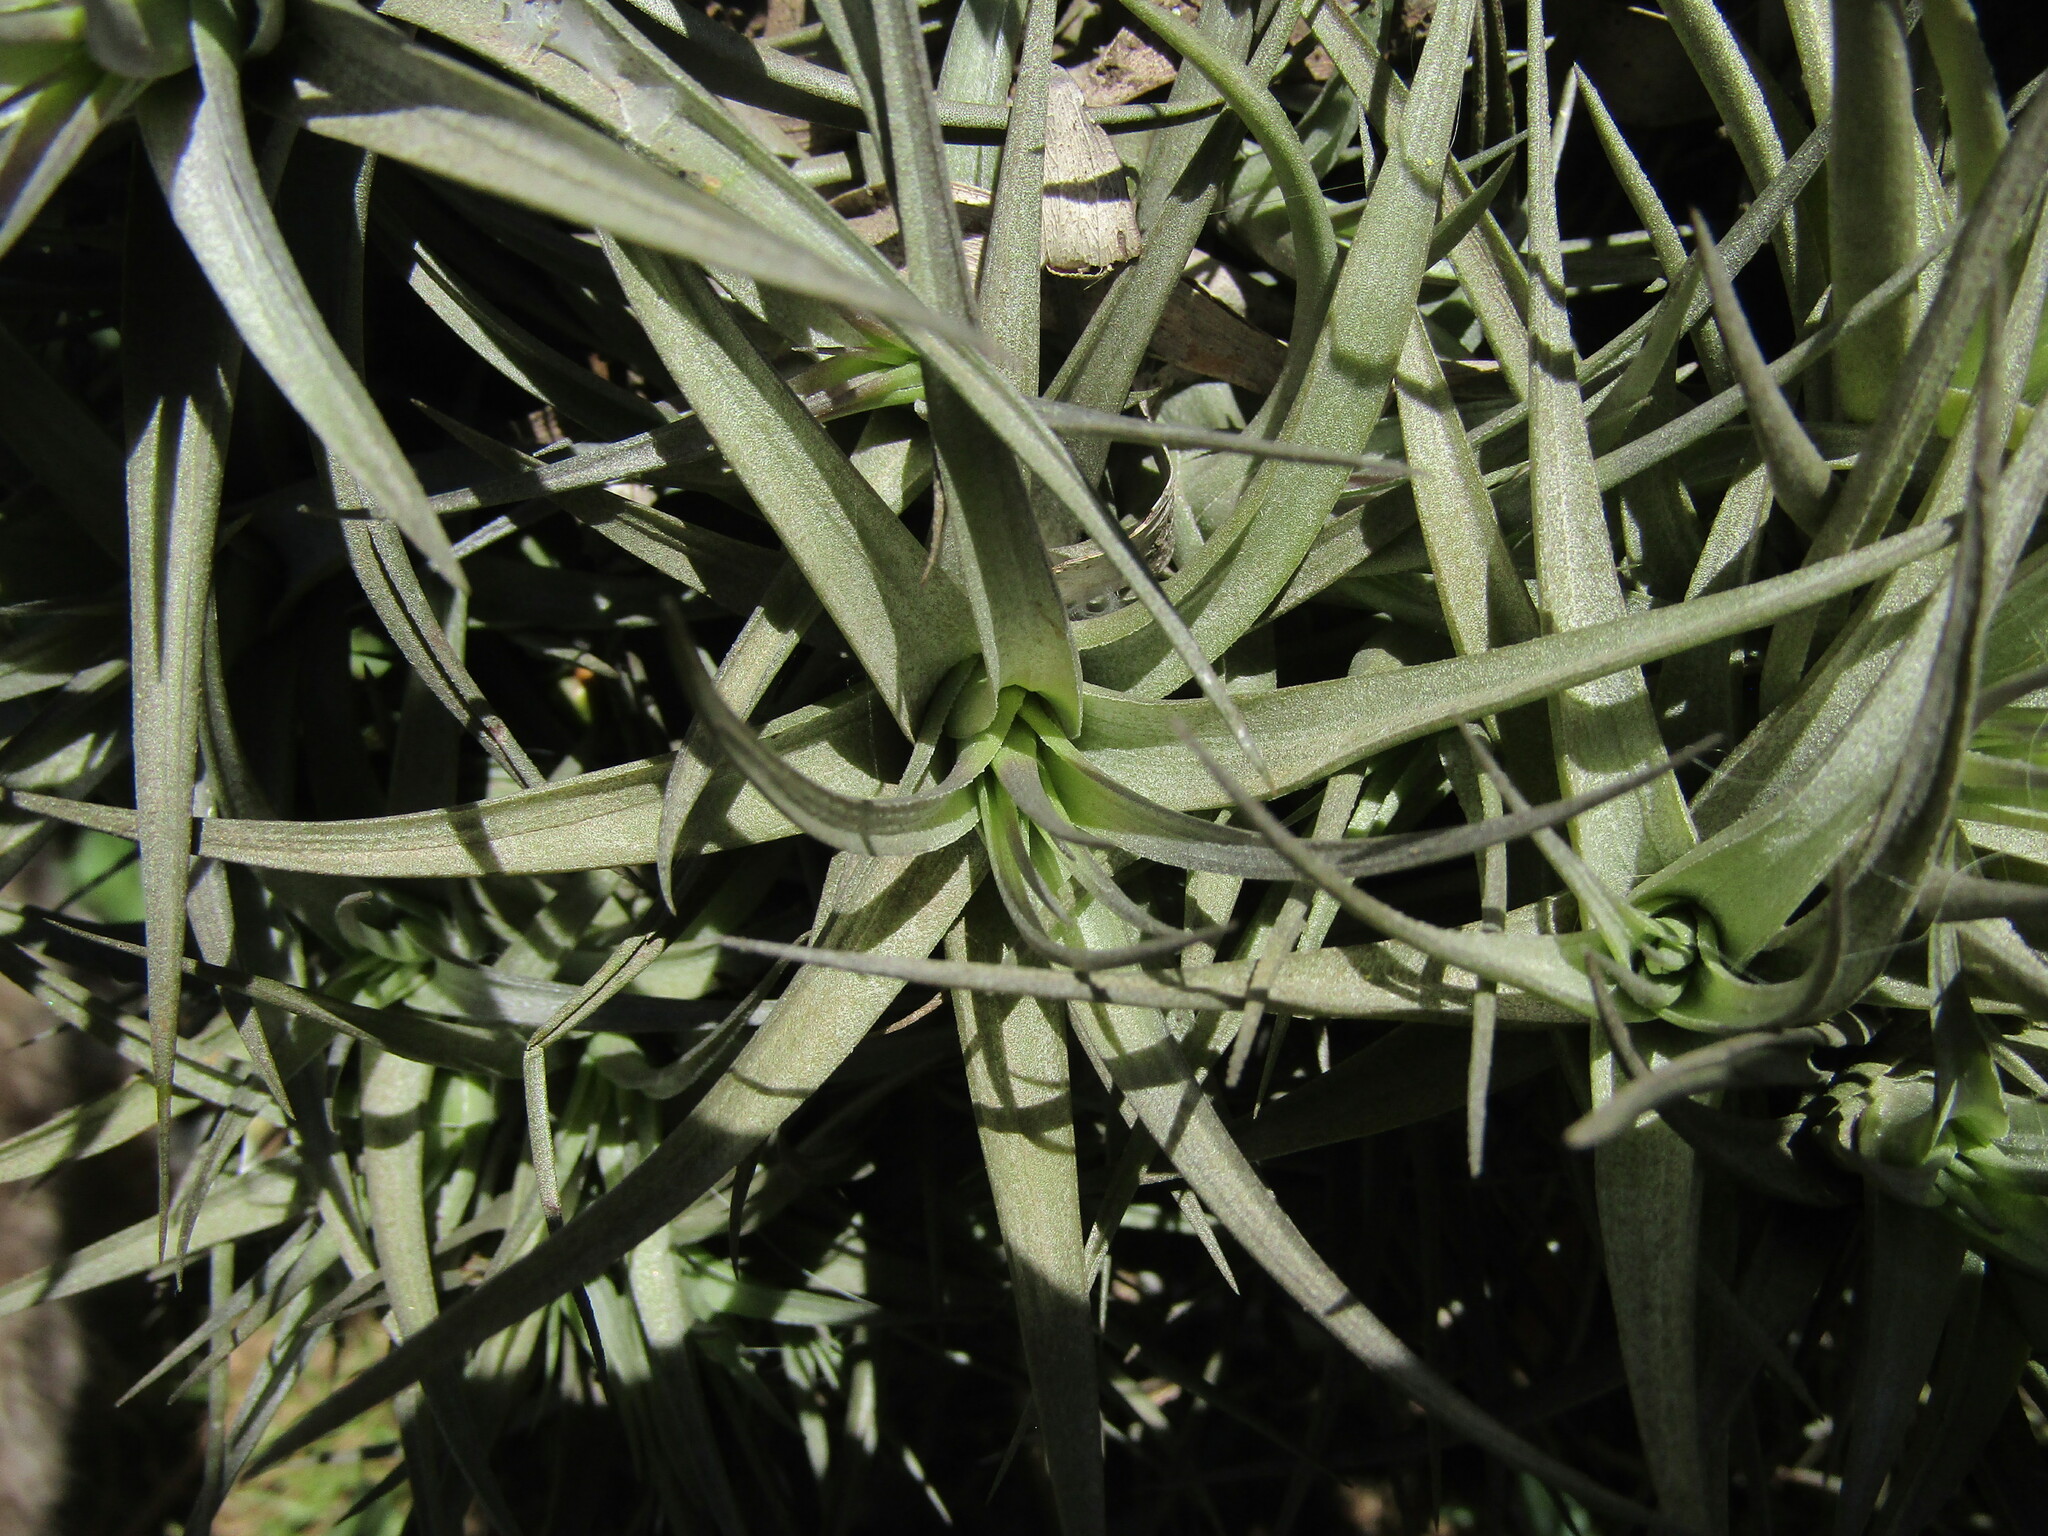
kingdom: Plantae
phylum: Tracheophyta
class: Liliopsida
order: Poales
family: Bromeliaceae
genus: Tillandsia
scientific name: Tillandsia bergeri
